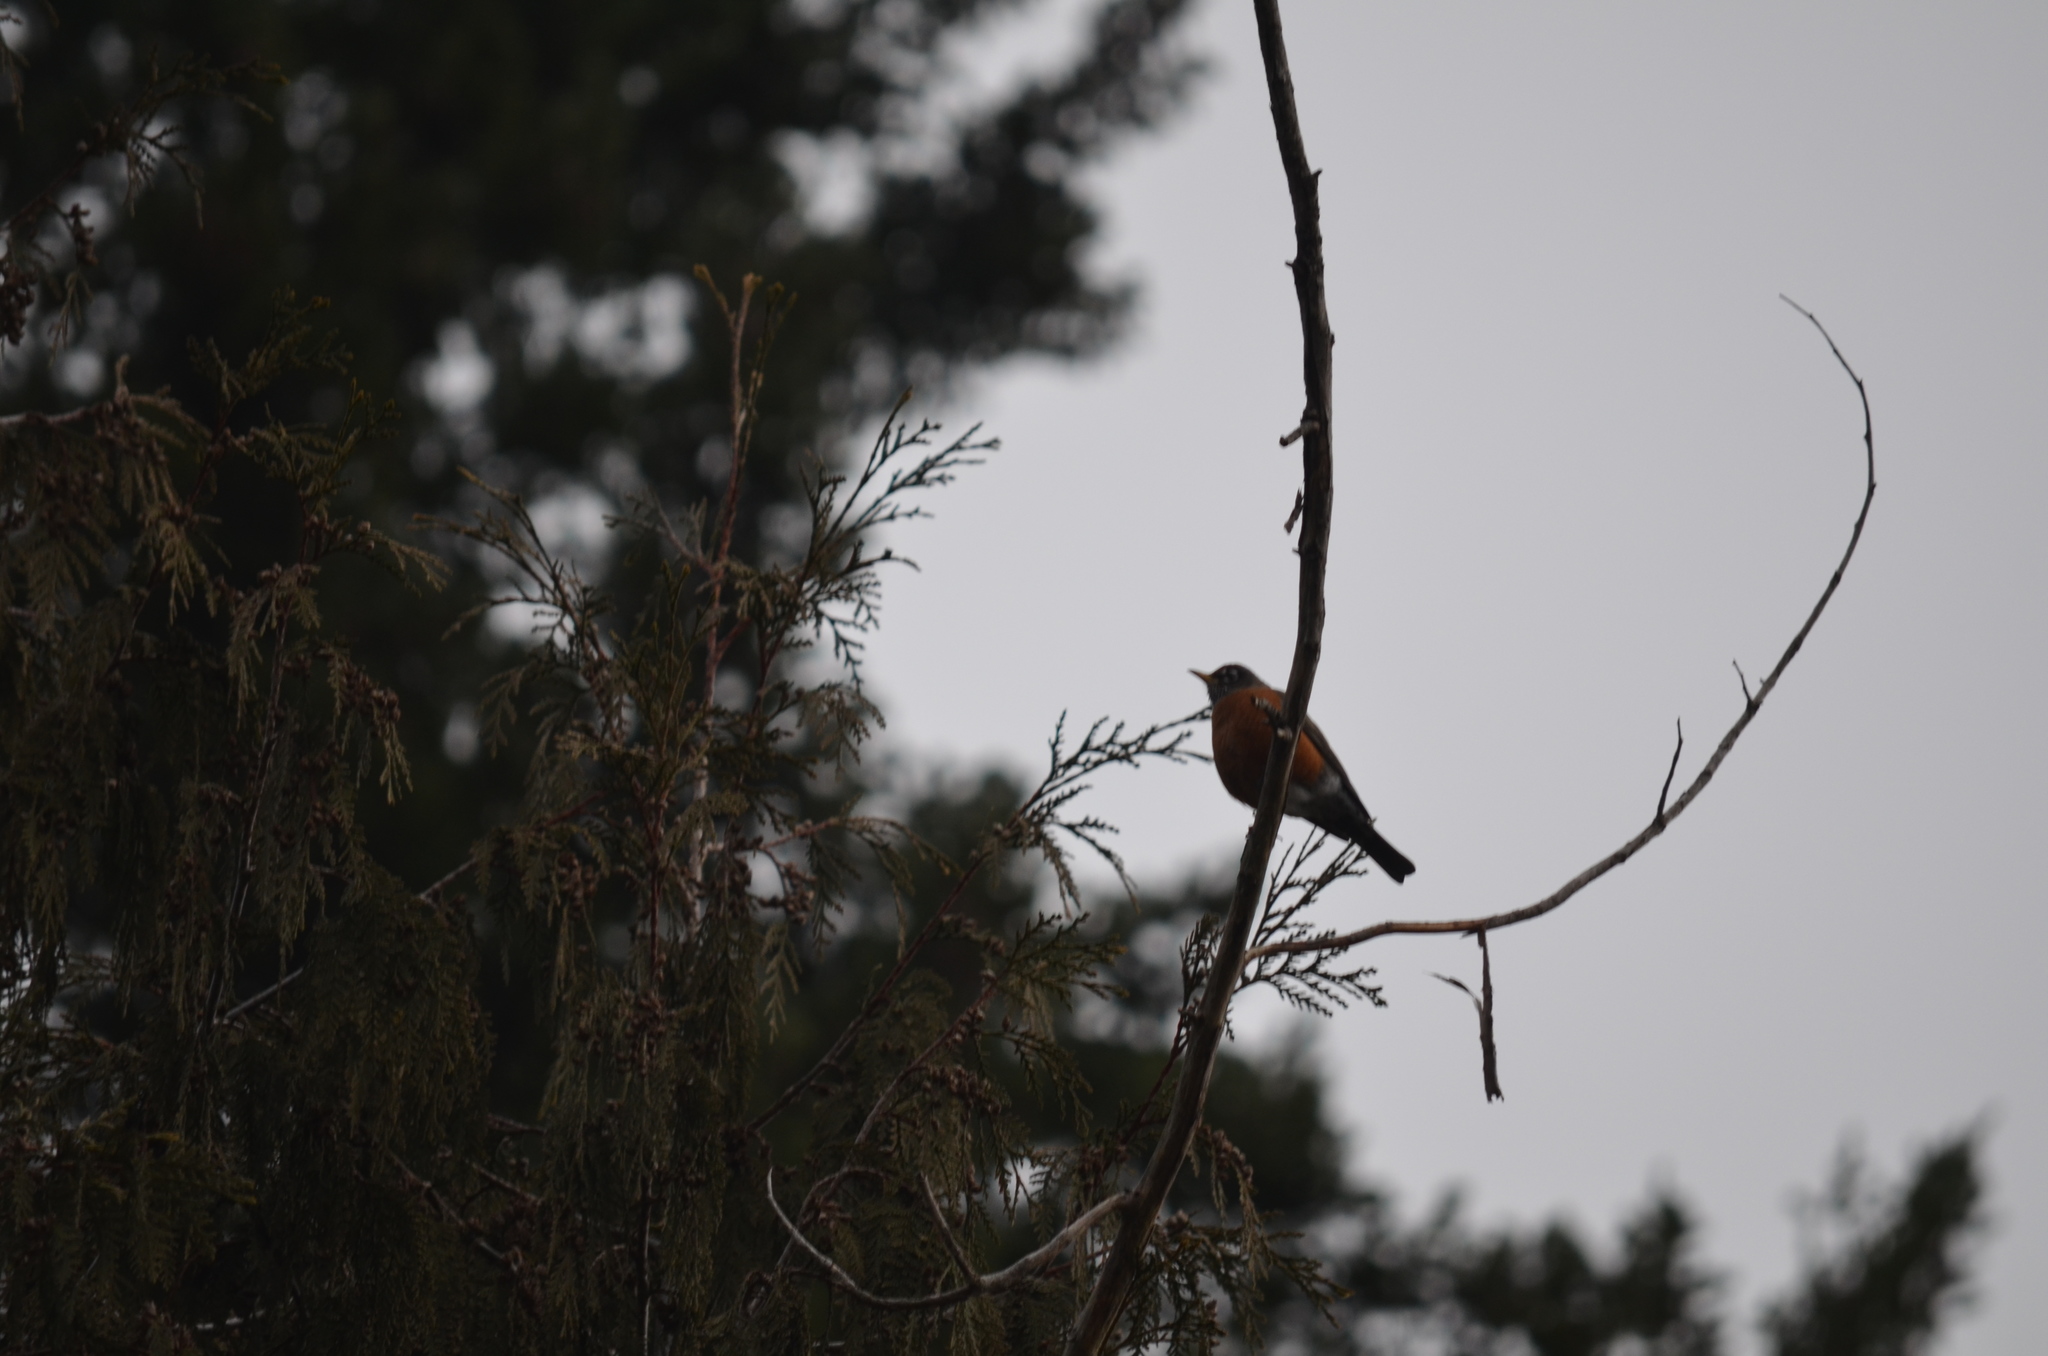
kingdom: Animalia
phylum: Chordata
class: Aves
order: Passeriformes
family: Turdidae
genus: Turdus
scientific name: Turdus migratorius
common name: American robin
